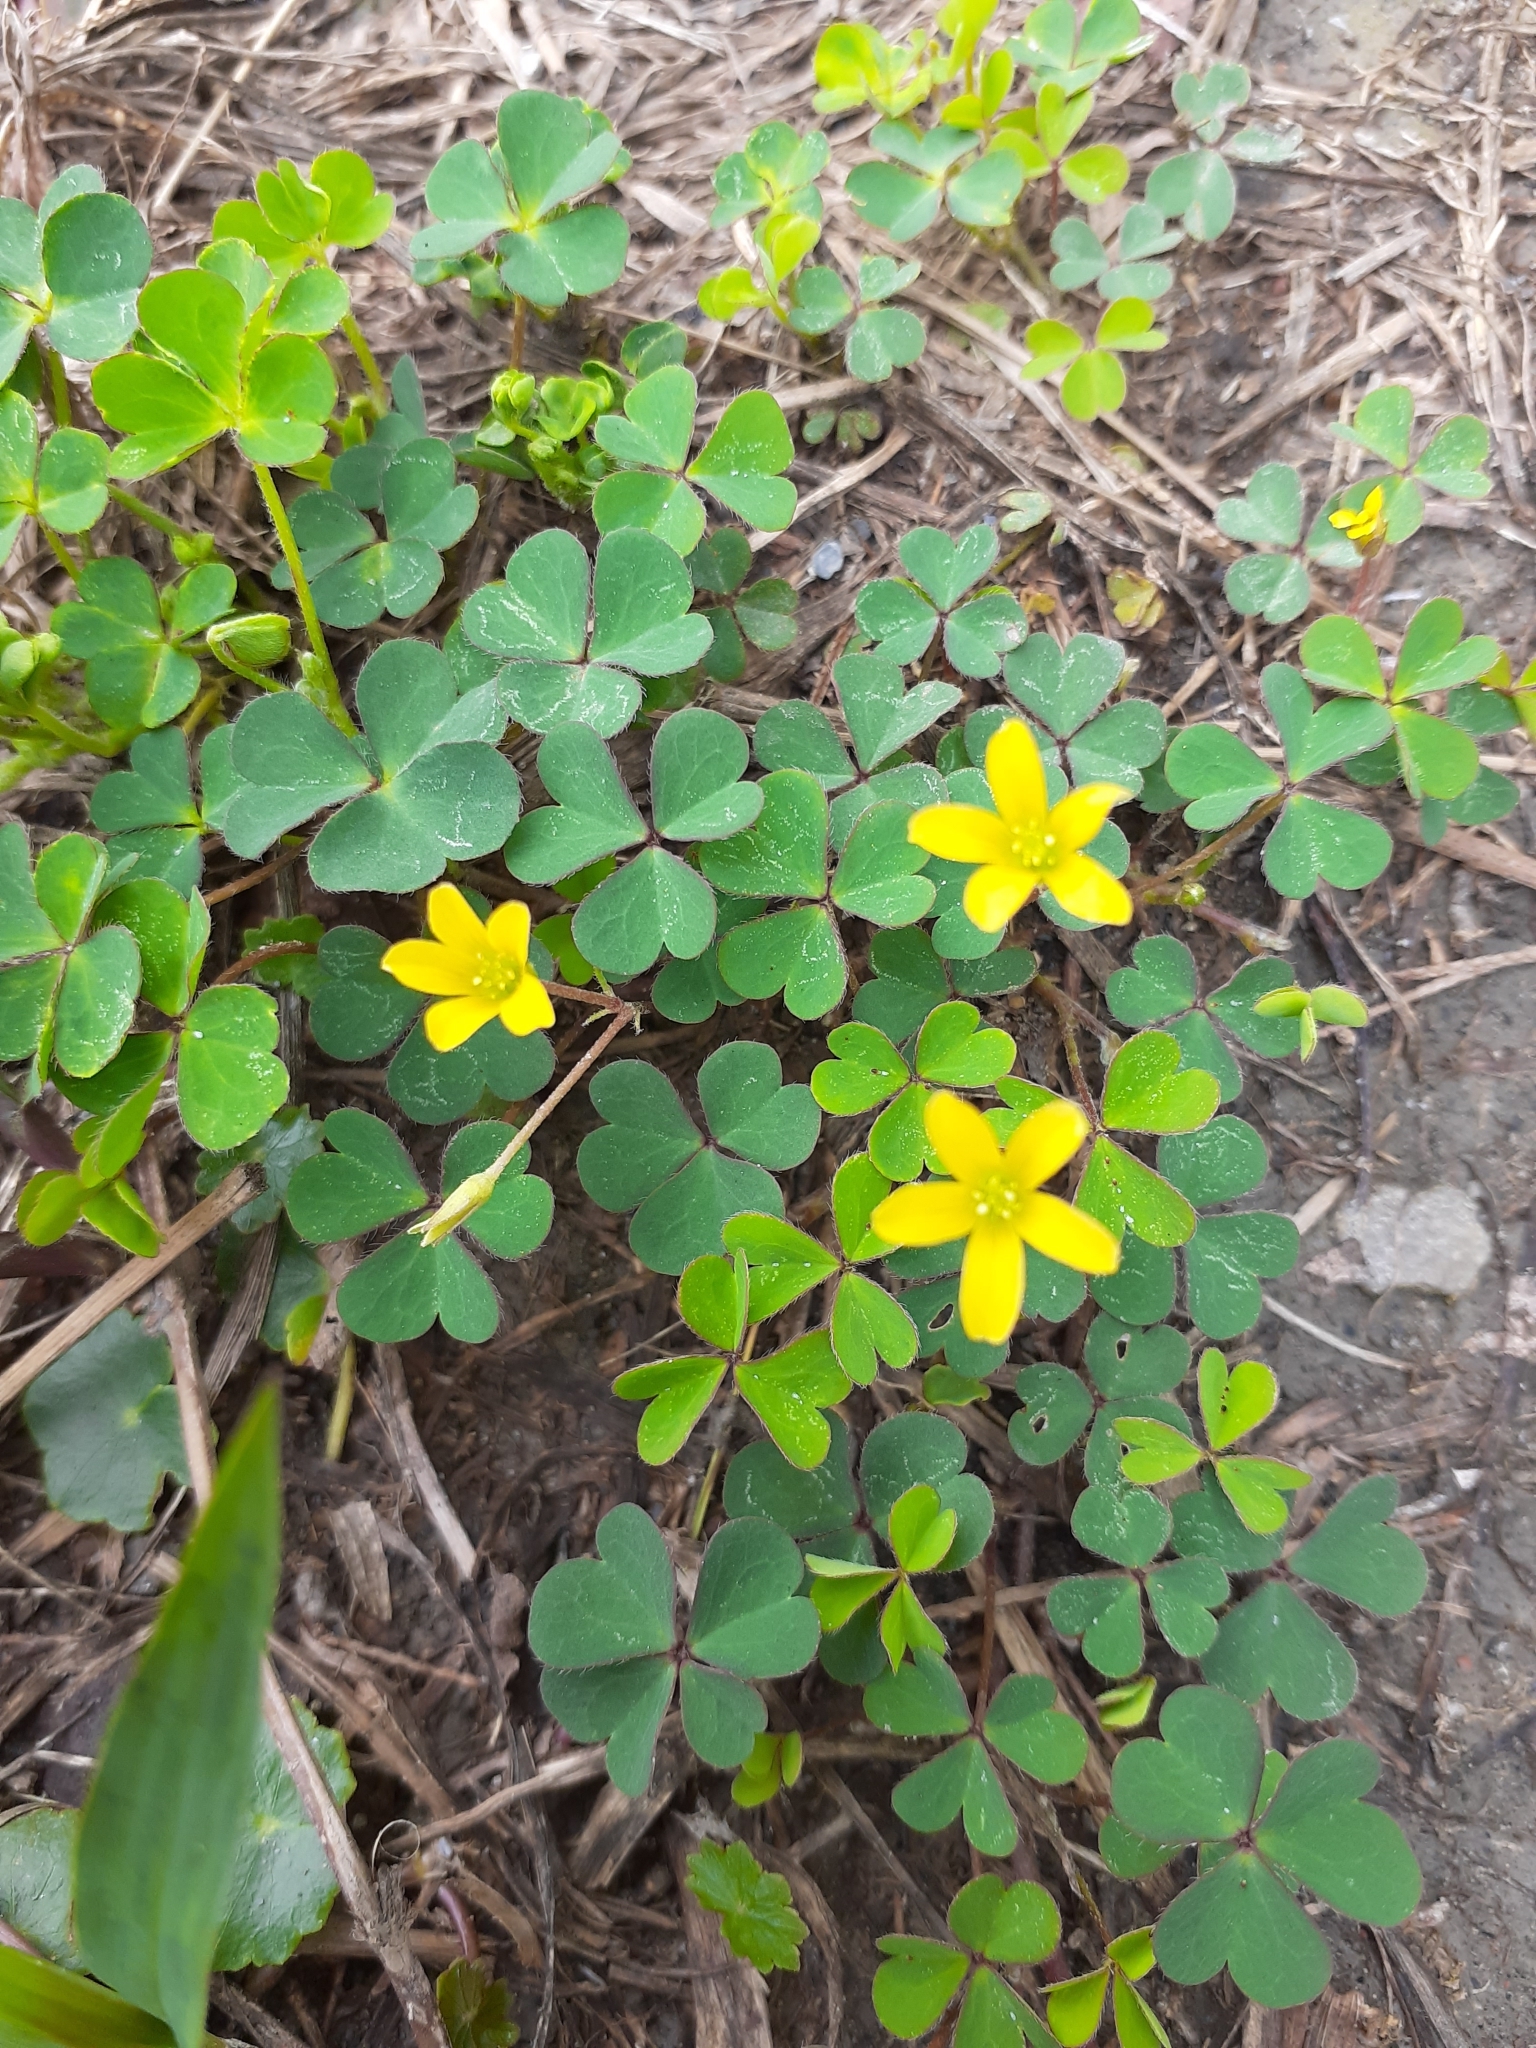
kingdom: Plantae
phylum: Tracheophyta
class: Magnoliopsida
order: Oxalidales
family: Oxalidaceae
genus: Oxalis
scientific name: Oxalis corniculata
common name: Procumbent yellow-sorrel
